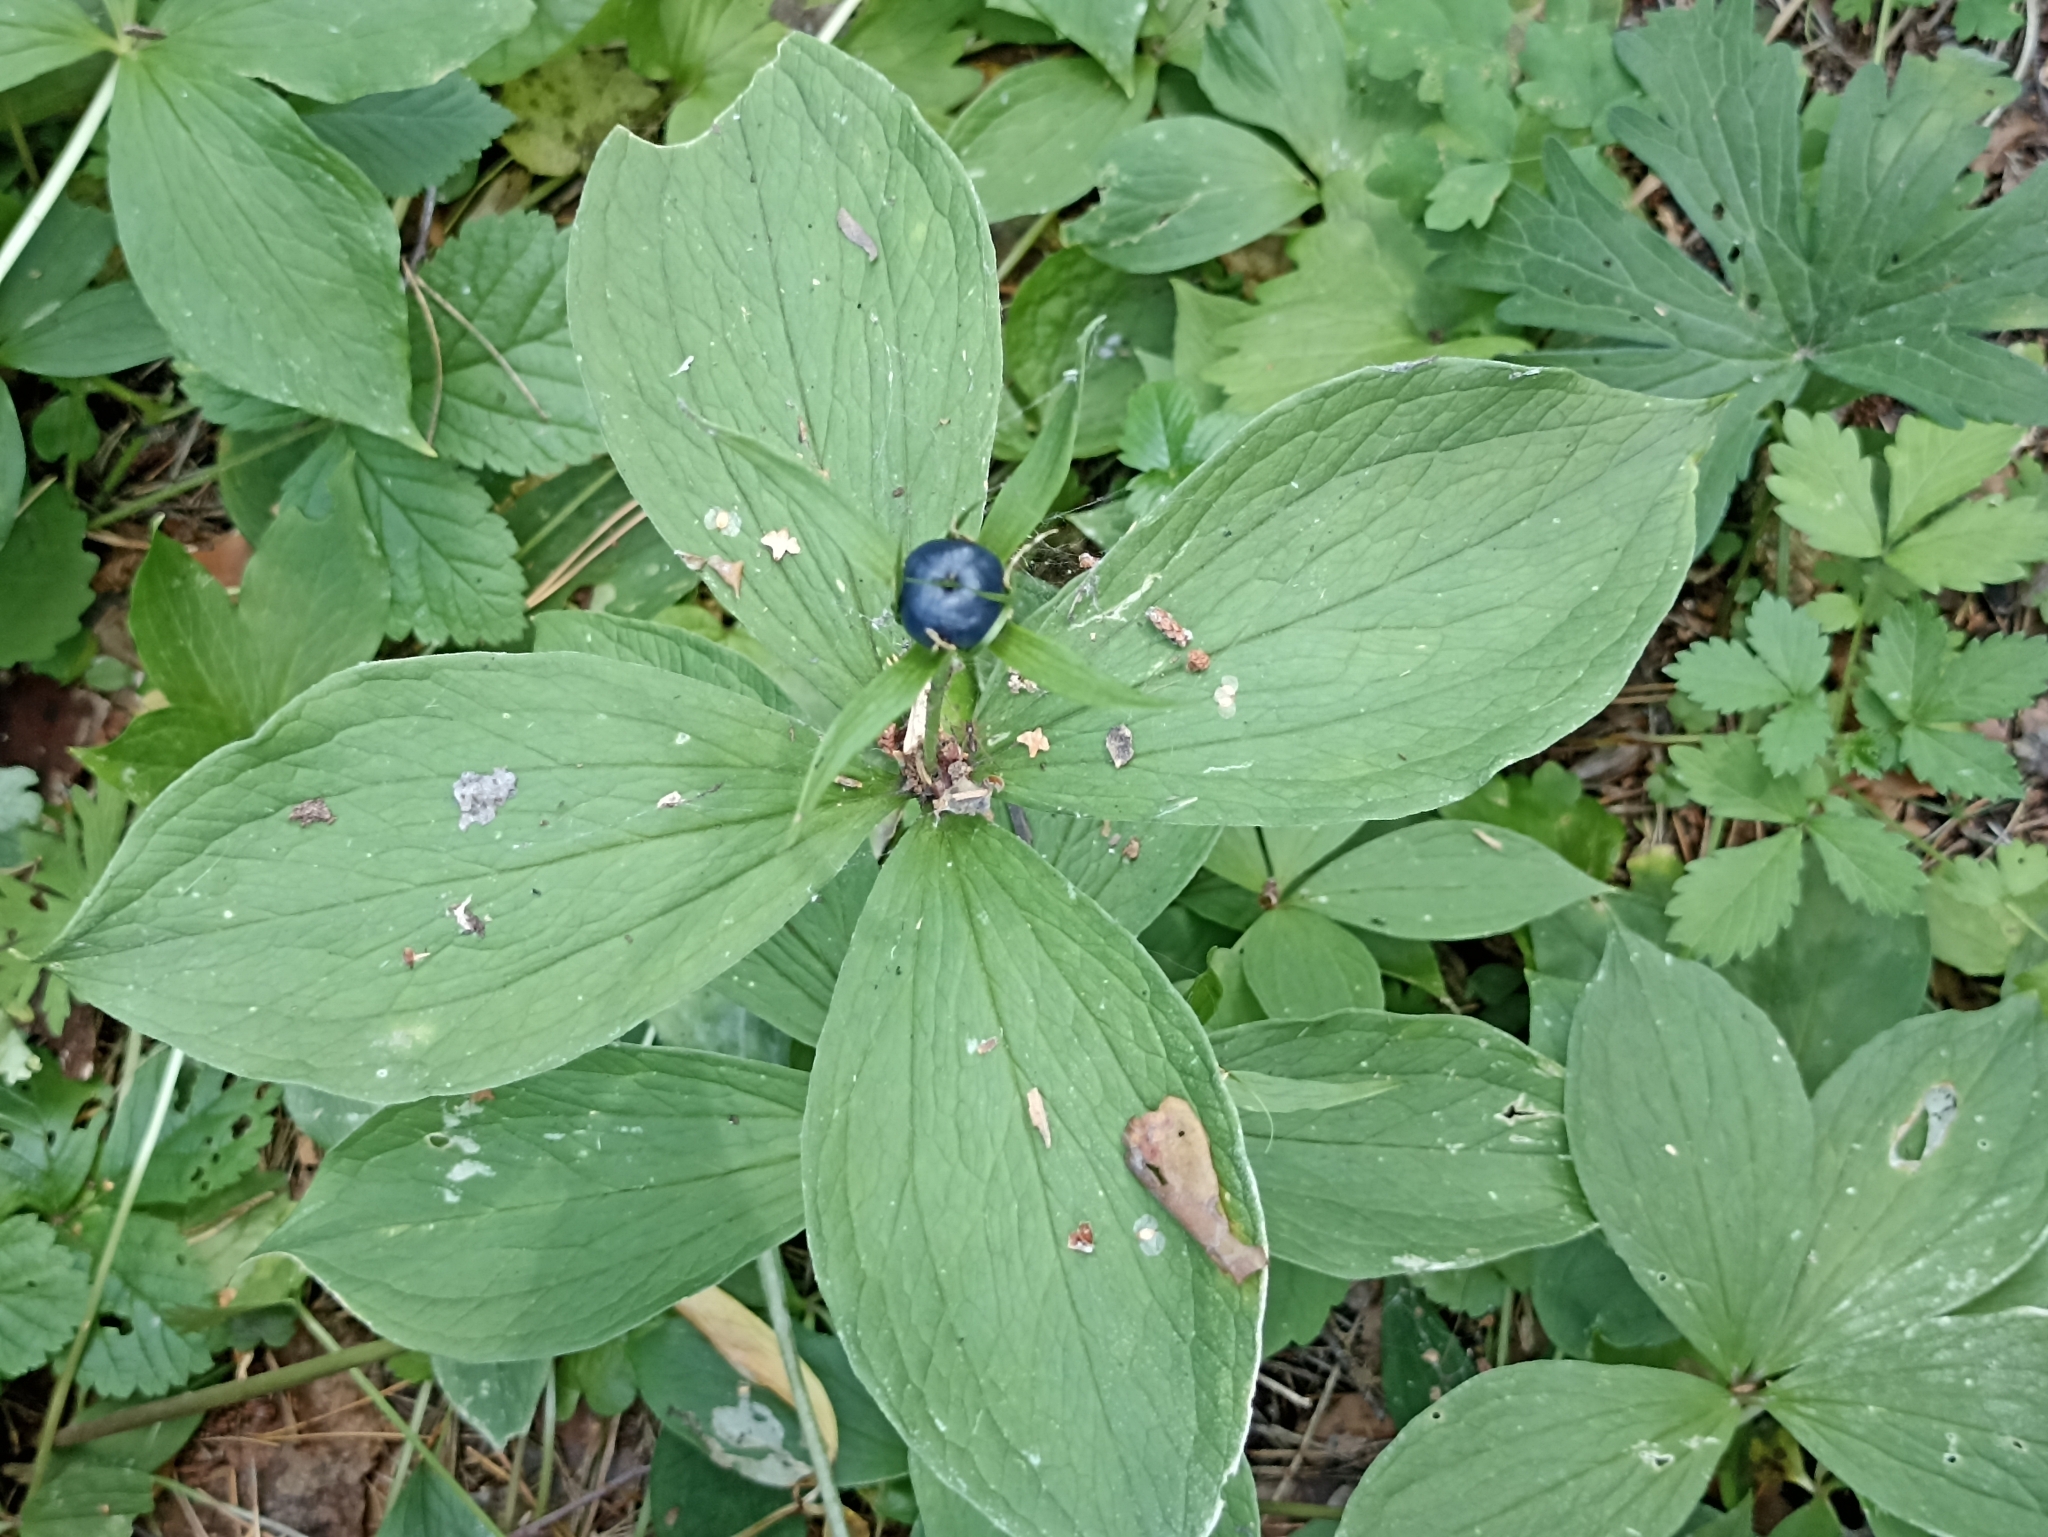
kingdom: Plantae
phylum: Tracheophyta
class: Liliopsida
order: Liliales
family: Melanthiaceae
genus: Paris
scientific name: Paris quadrifolia
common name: Herb-paris
